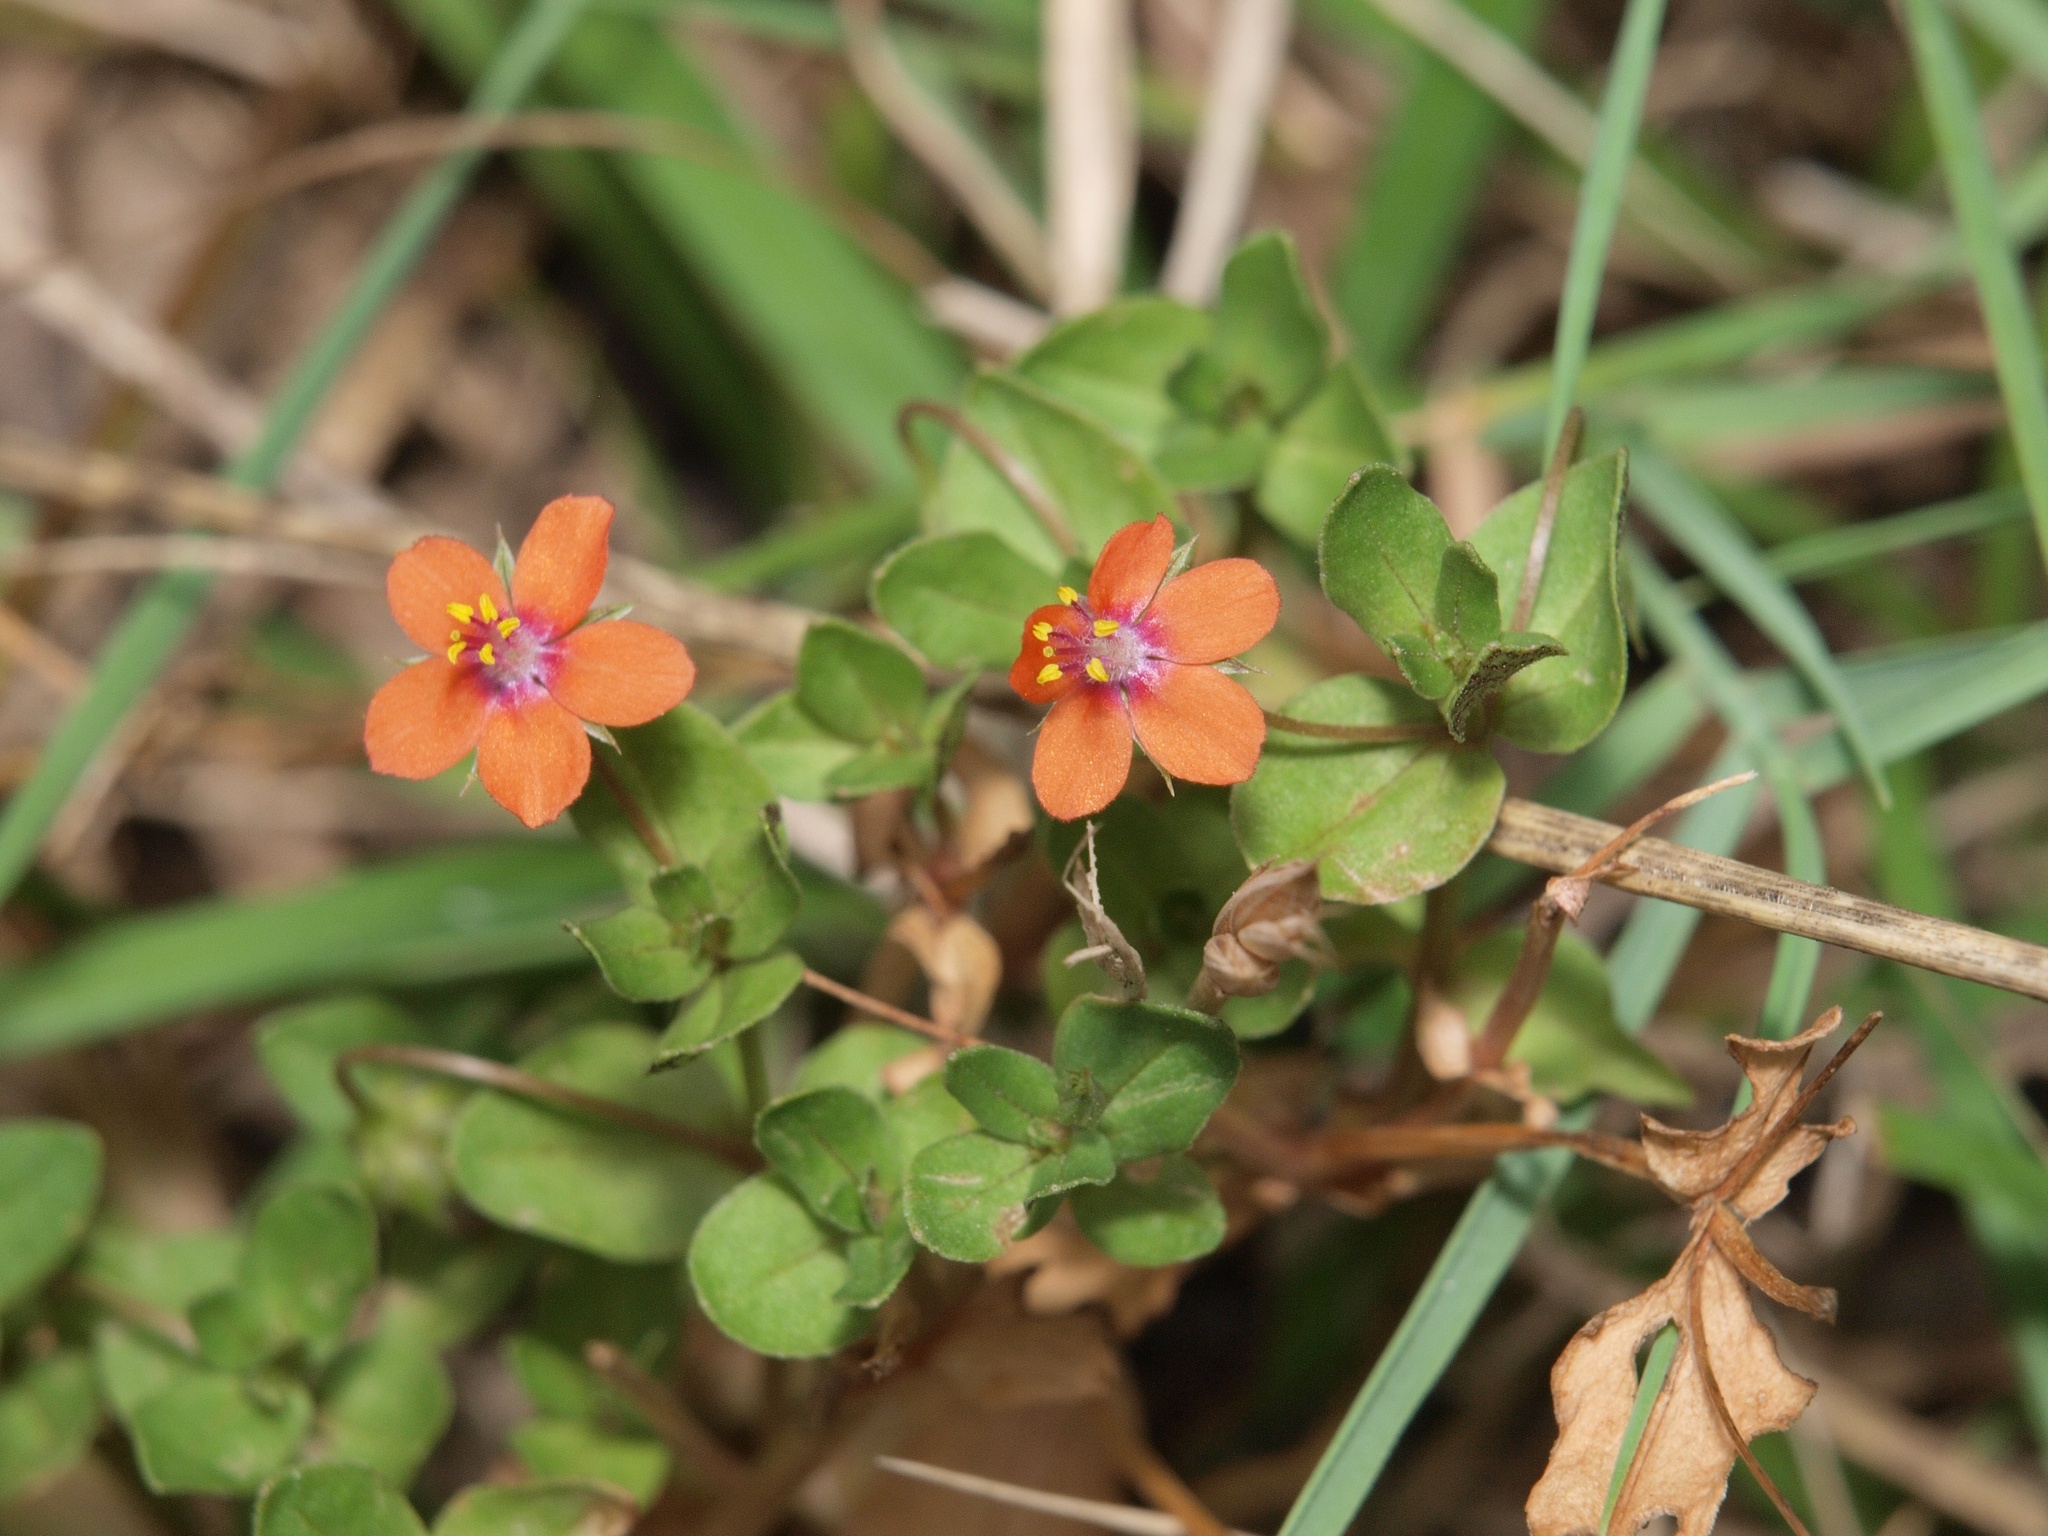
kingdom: Plantae
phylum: Tracheophyta
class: Magnoliopsida
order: Ericales
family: Primulaceae
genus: Lysimachia
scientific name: Lysimachia arvensis
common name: Scarlet pimpernel
